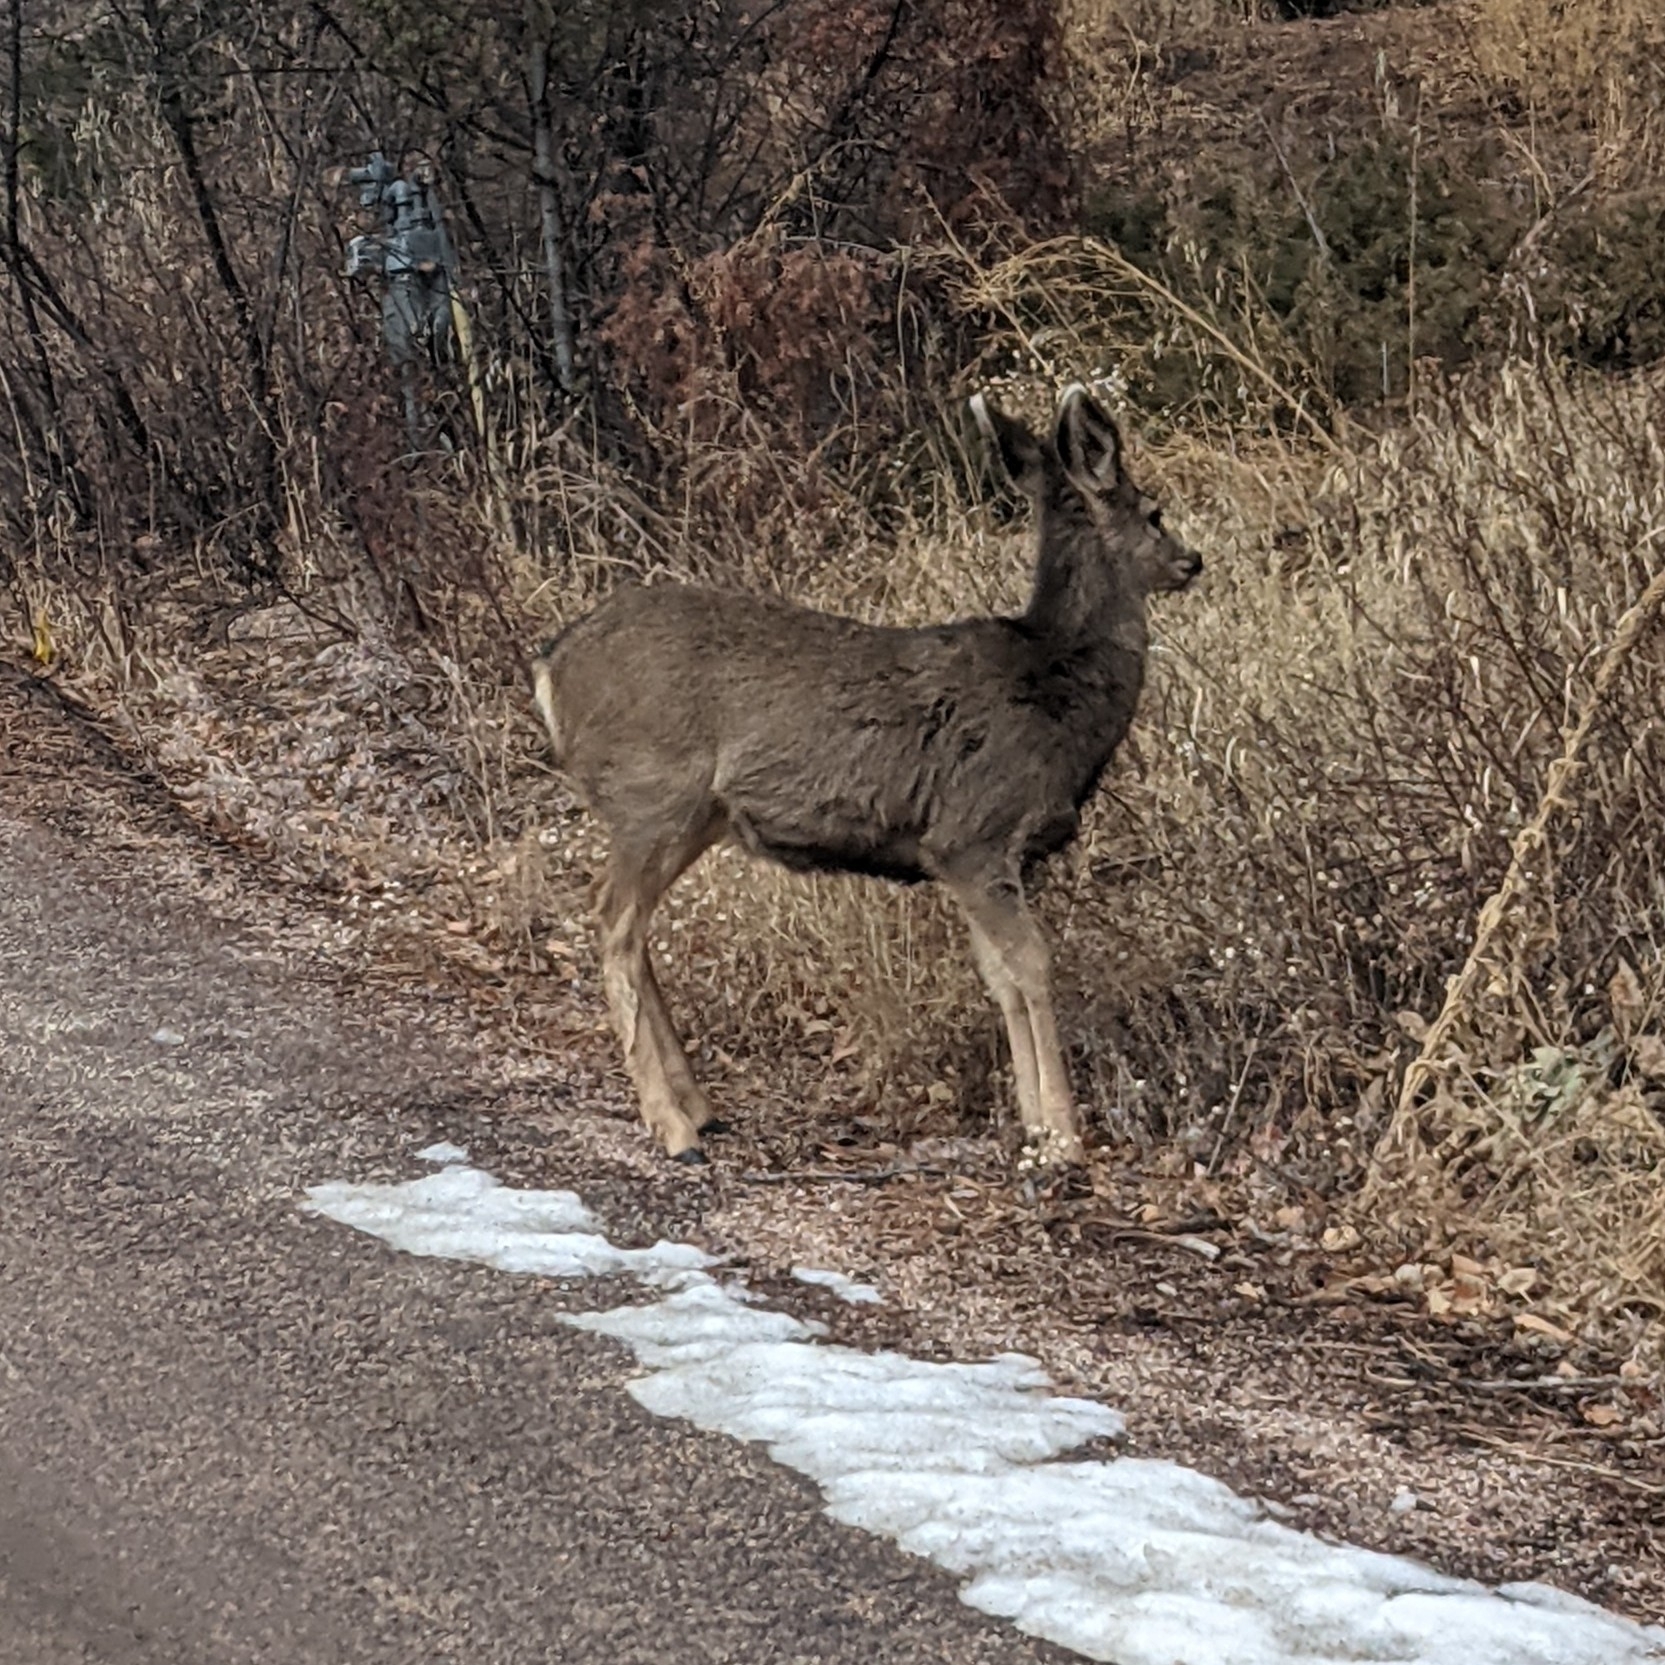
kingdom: Animalia
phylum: Chordata
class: Mammalia
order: Artiodactyla
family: Cervidae
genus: Odocoileus
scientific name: Odocoileus hemionus
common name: Mule deer
